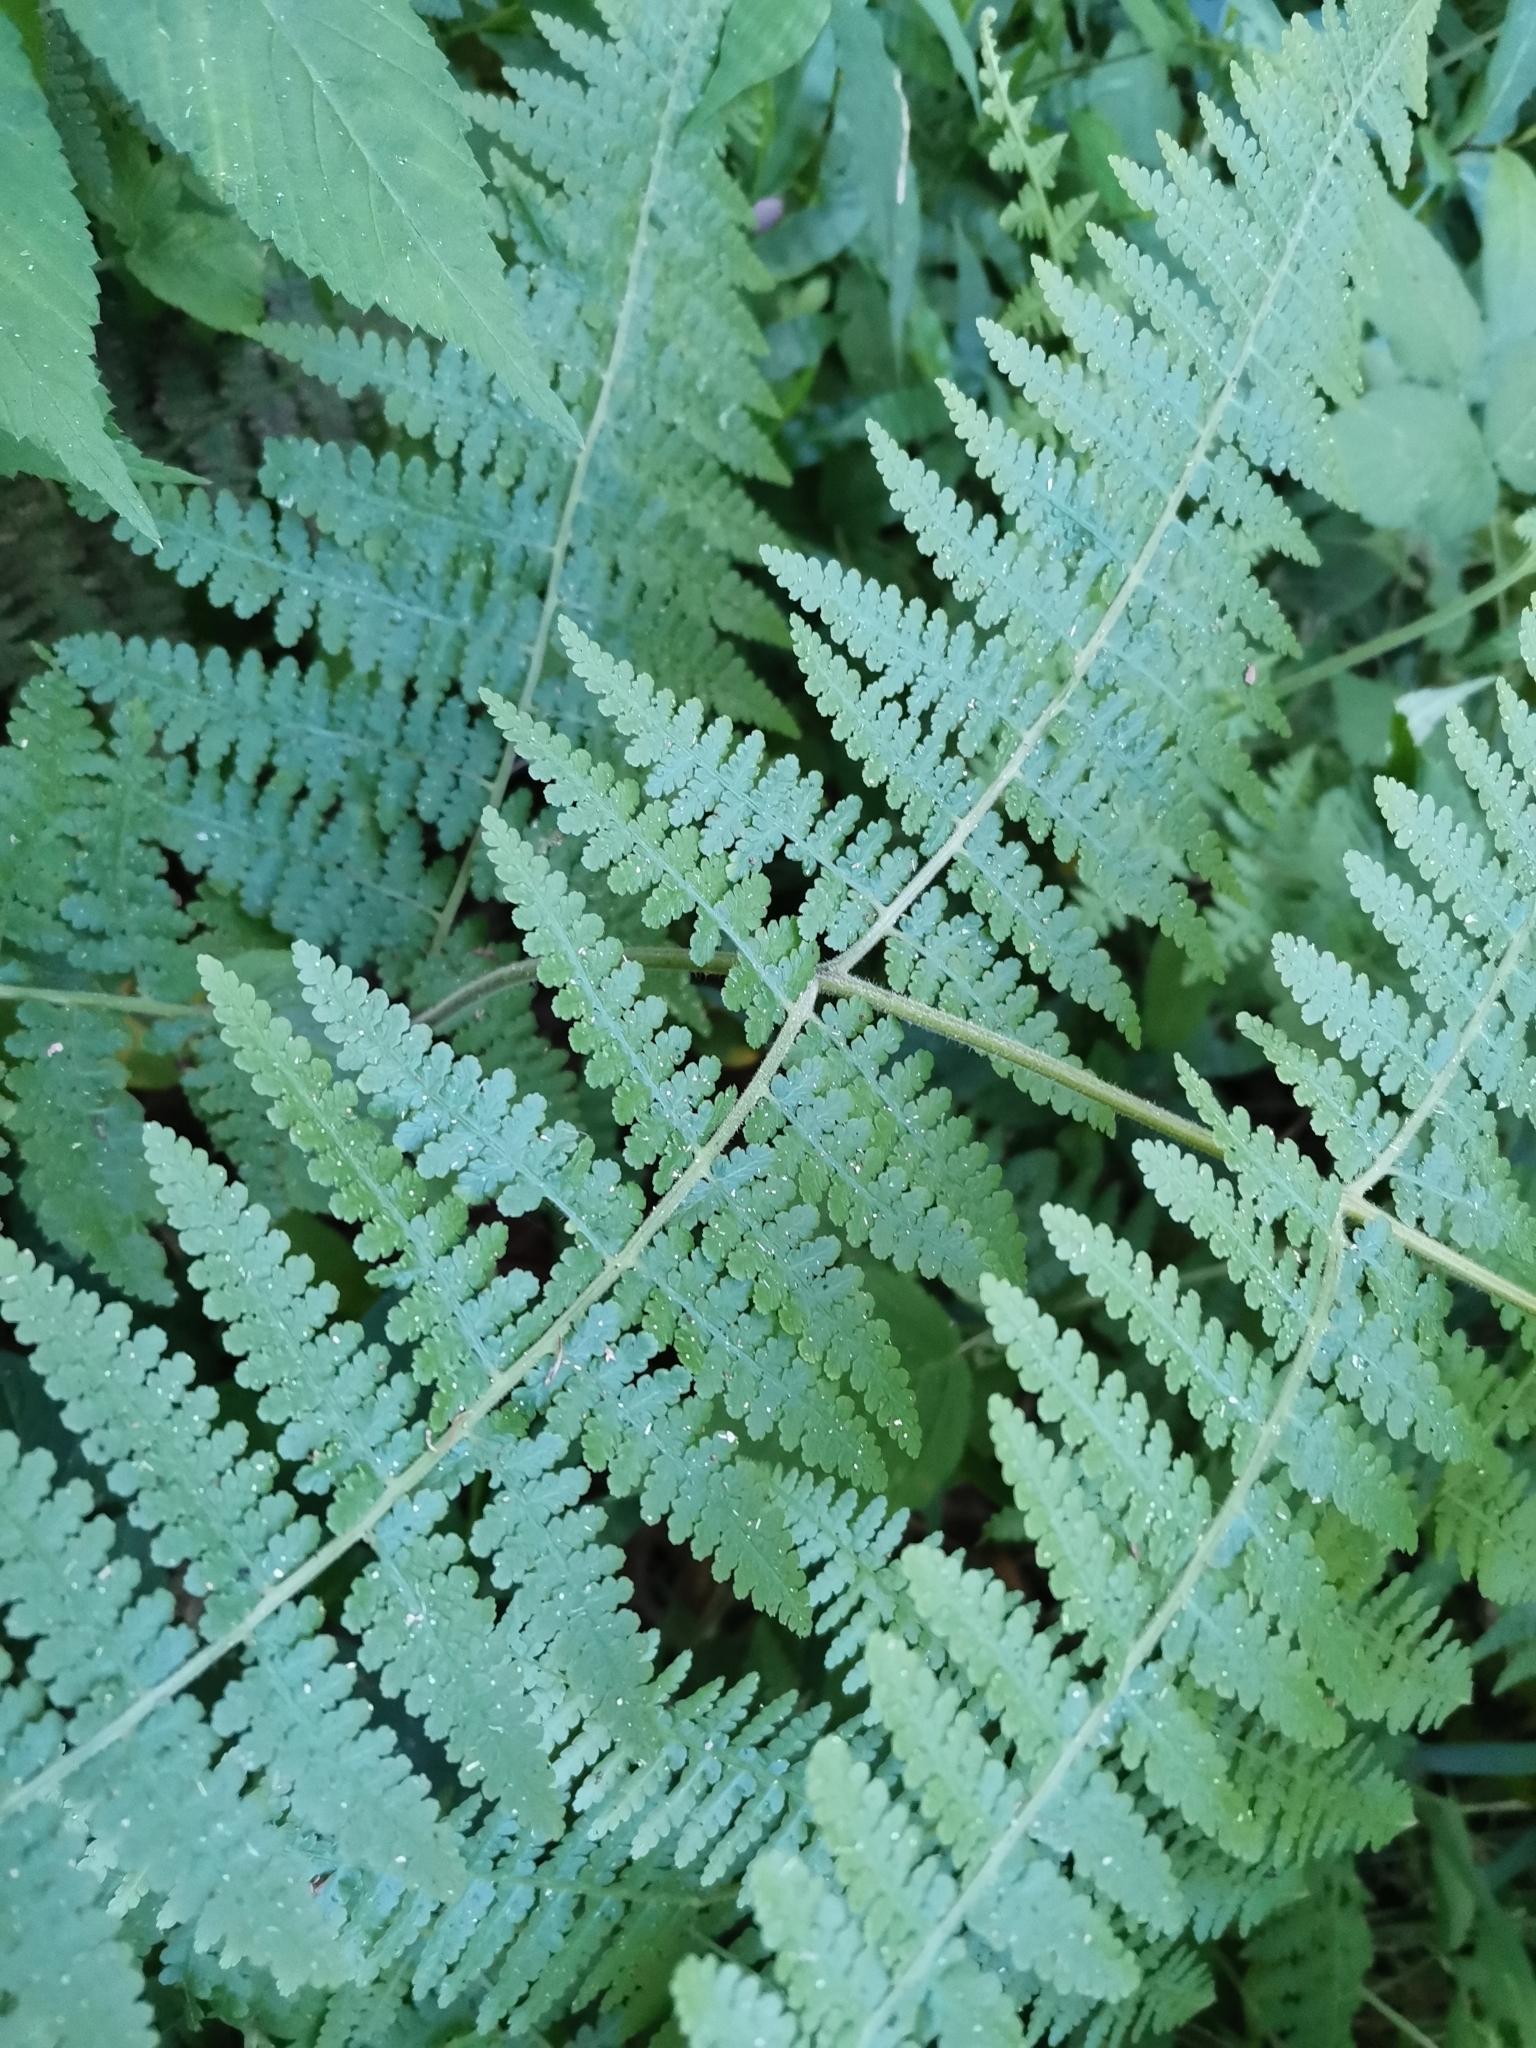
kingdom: Plantae
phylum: Tracheophyta
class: Polypodiopsida
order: Polypodiales
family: Dennstaedtiaceae
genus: Hypolepis
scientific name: Hypolepis punctata
